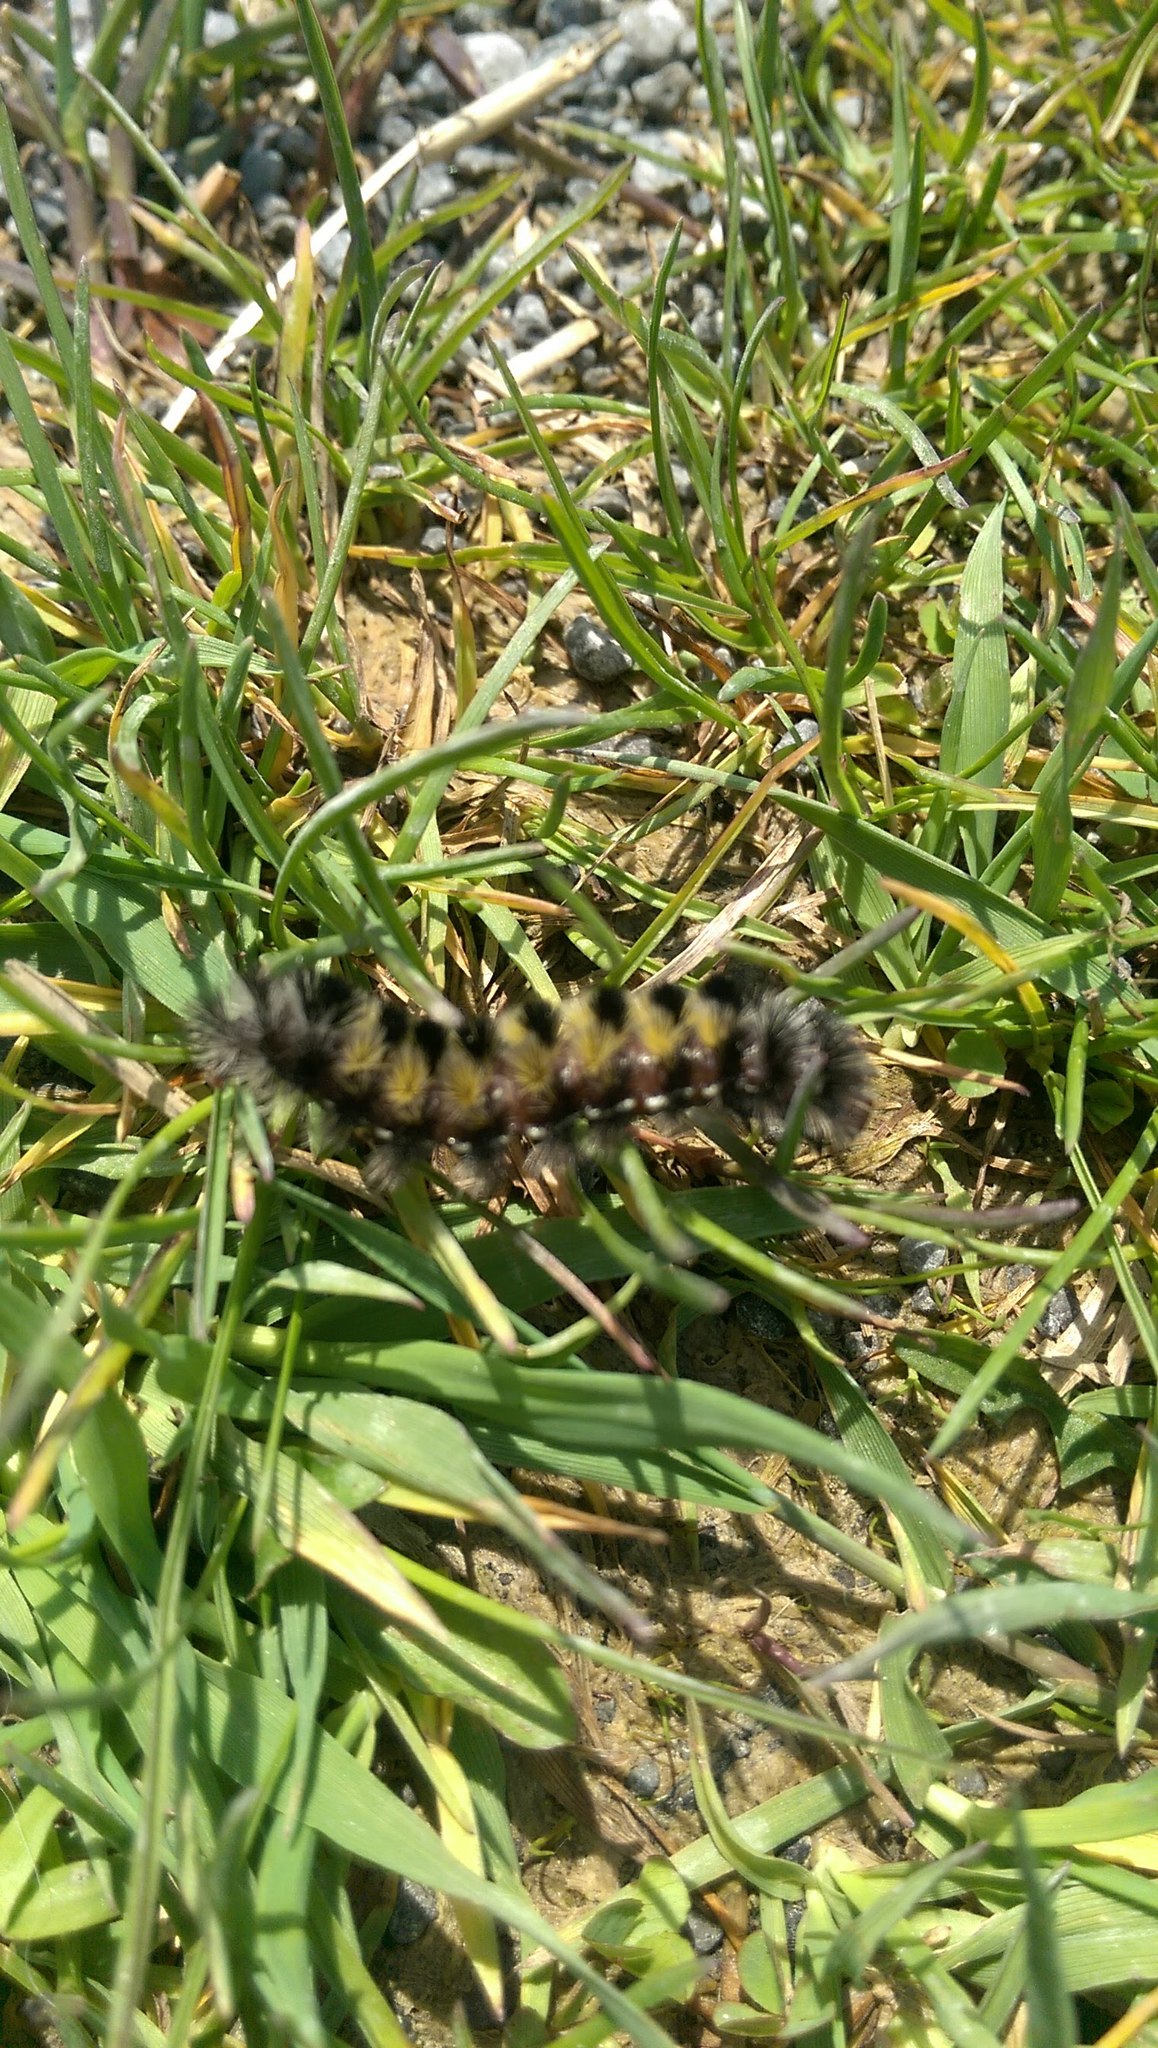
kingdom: Animalia
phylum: Arthropoda
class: Insecta
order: Lepidoptera
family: Erebidae
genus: Ctenucha
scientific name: Ctenucha virginica
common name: Virginia ctenucha moth
